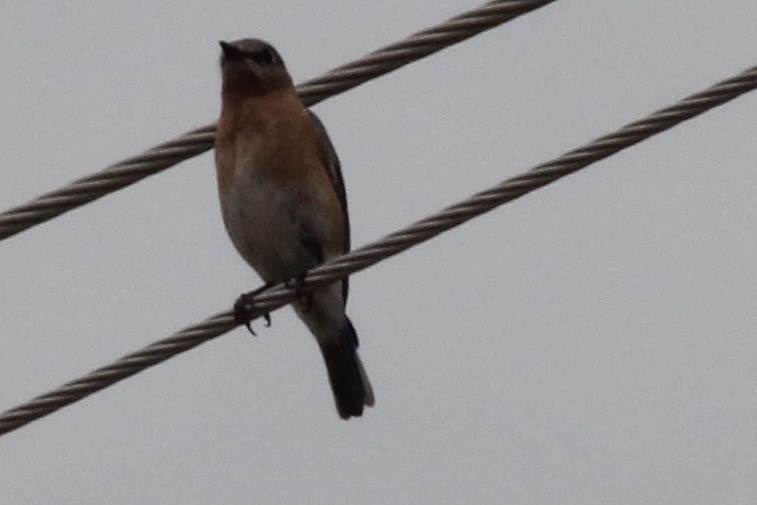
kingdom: Animalia
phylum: Chordata
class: Aves
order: Passeriformes
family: Turdidae
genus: Sialia
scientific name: Sialia sialis
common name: Eastern bluebird
